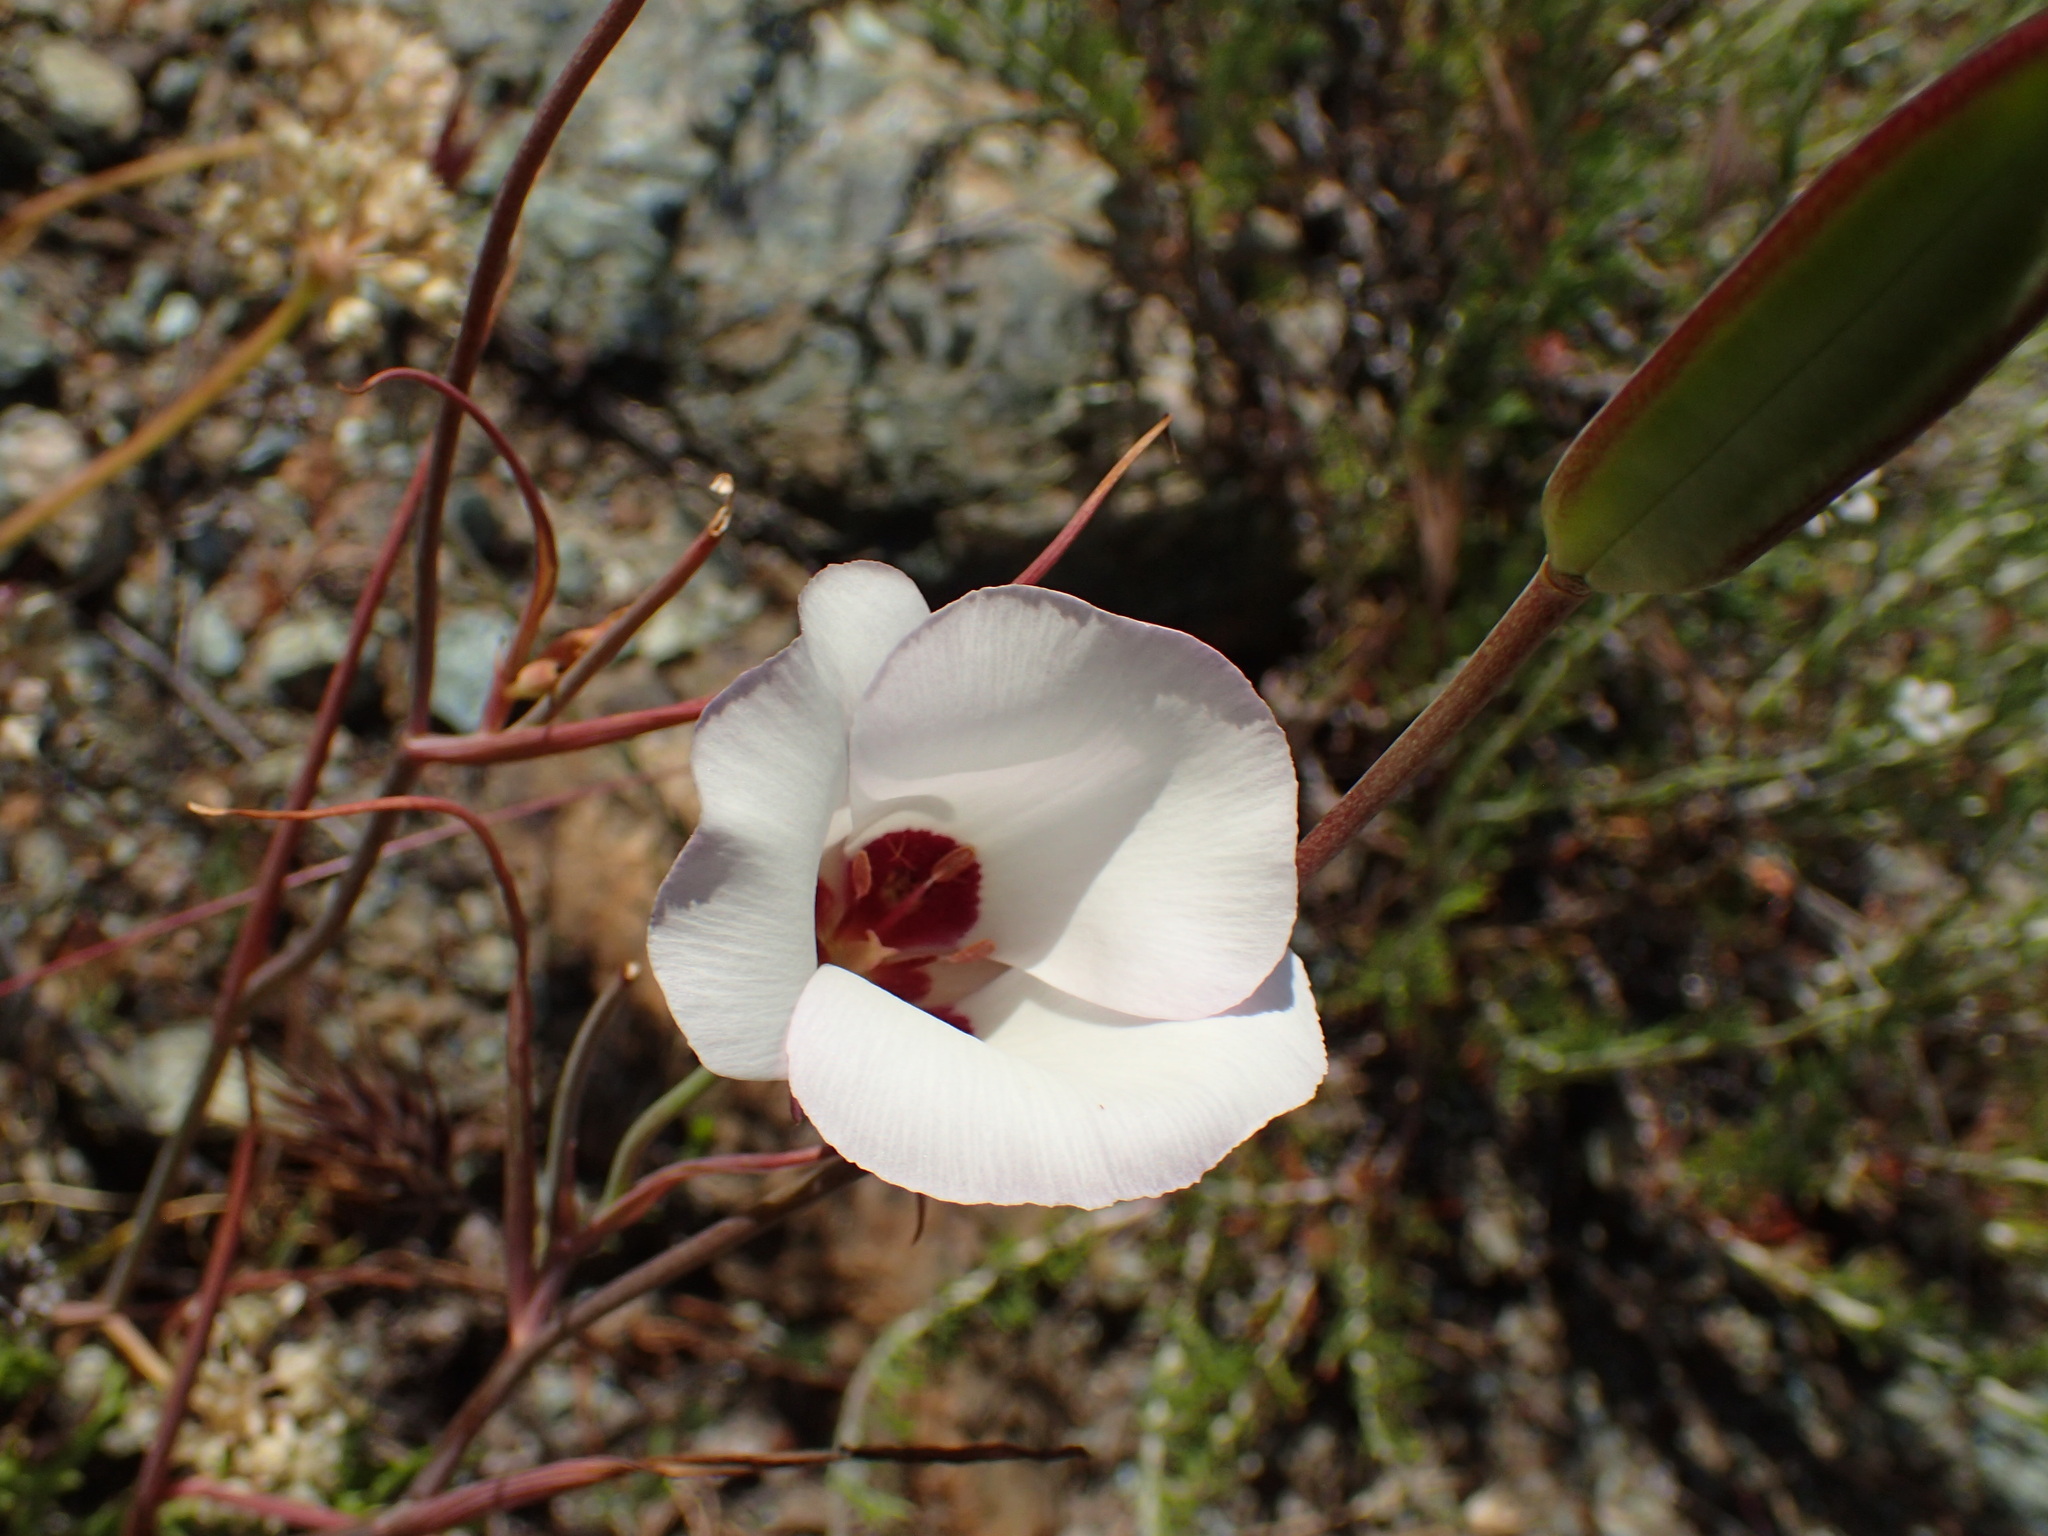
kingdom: Plantae
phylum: Tracheophyta
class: Liliopsida
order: Liliales
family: Liliaceae
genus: Calochortus
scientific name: Calochortus catalinae
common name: Catalina mariposa-lily
